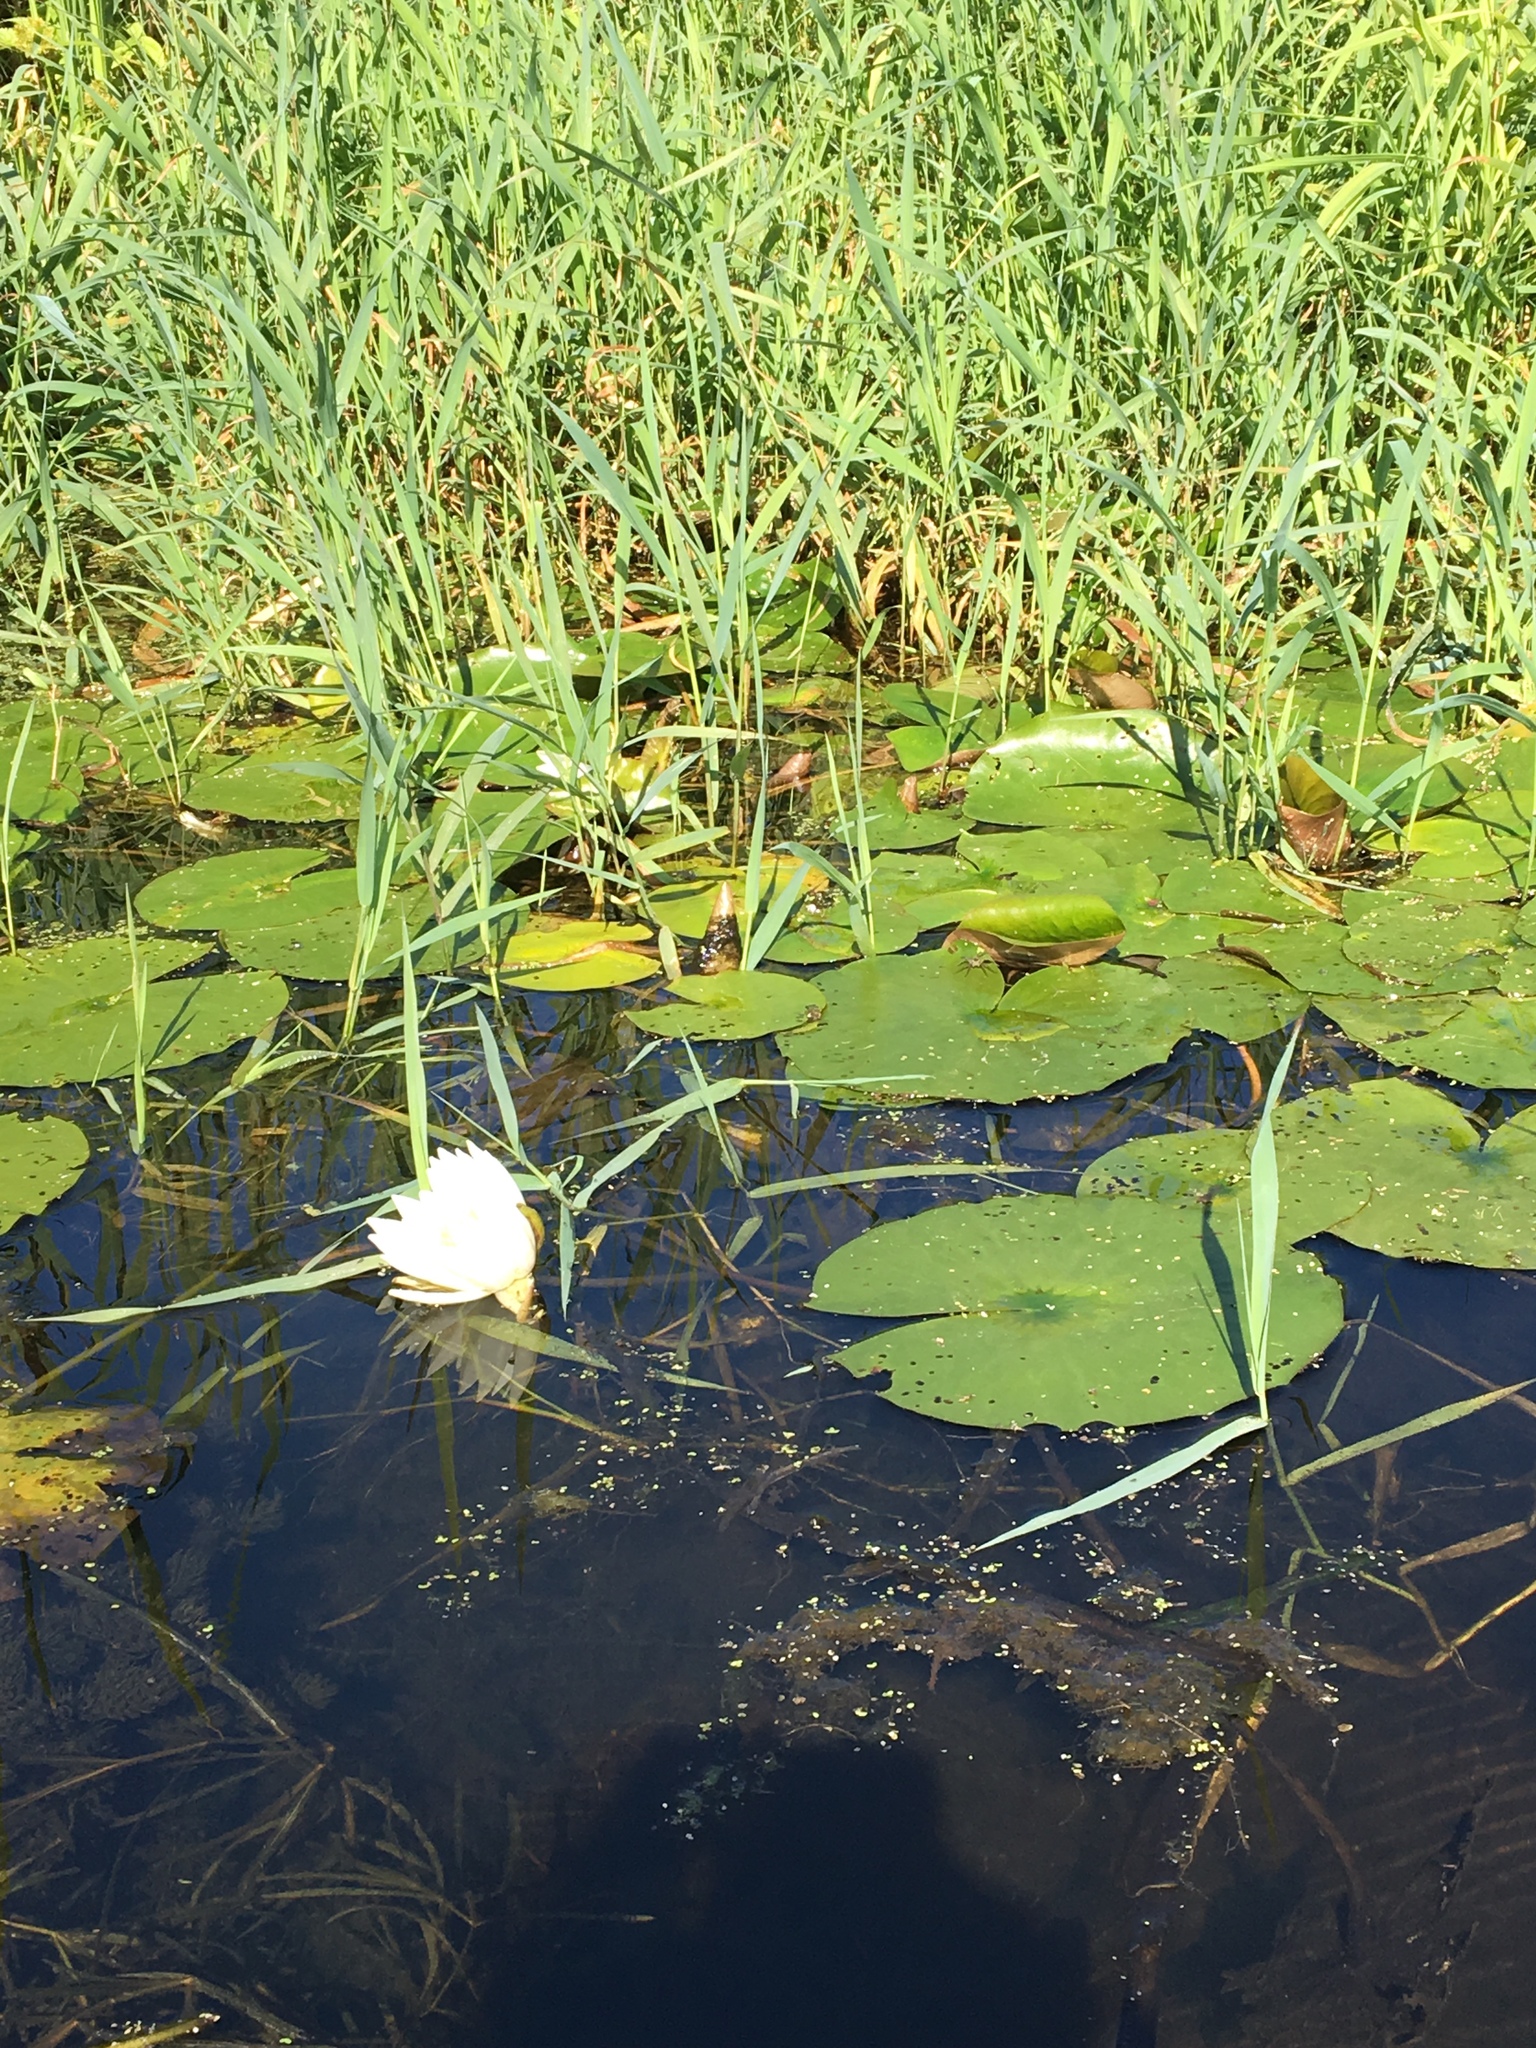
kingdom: Plantae
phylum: Tracheophyta
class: Magnoliopsida
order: Nymphaeales
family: Nymphaeaceae
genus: Nymphaea
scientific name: Nymphaea odorata
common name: Fragrant water-lily
